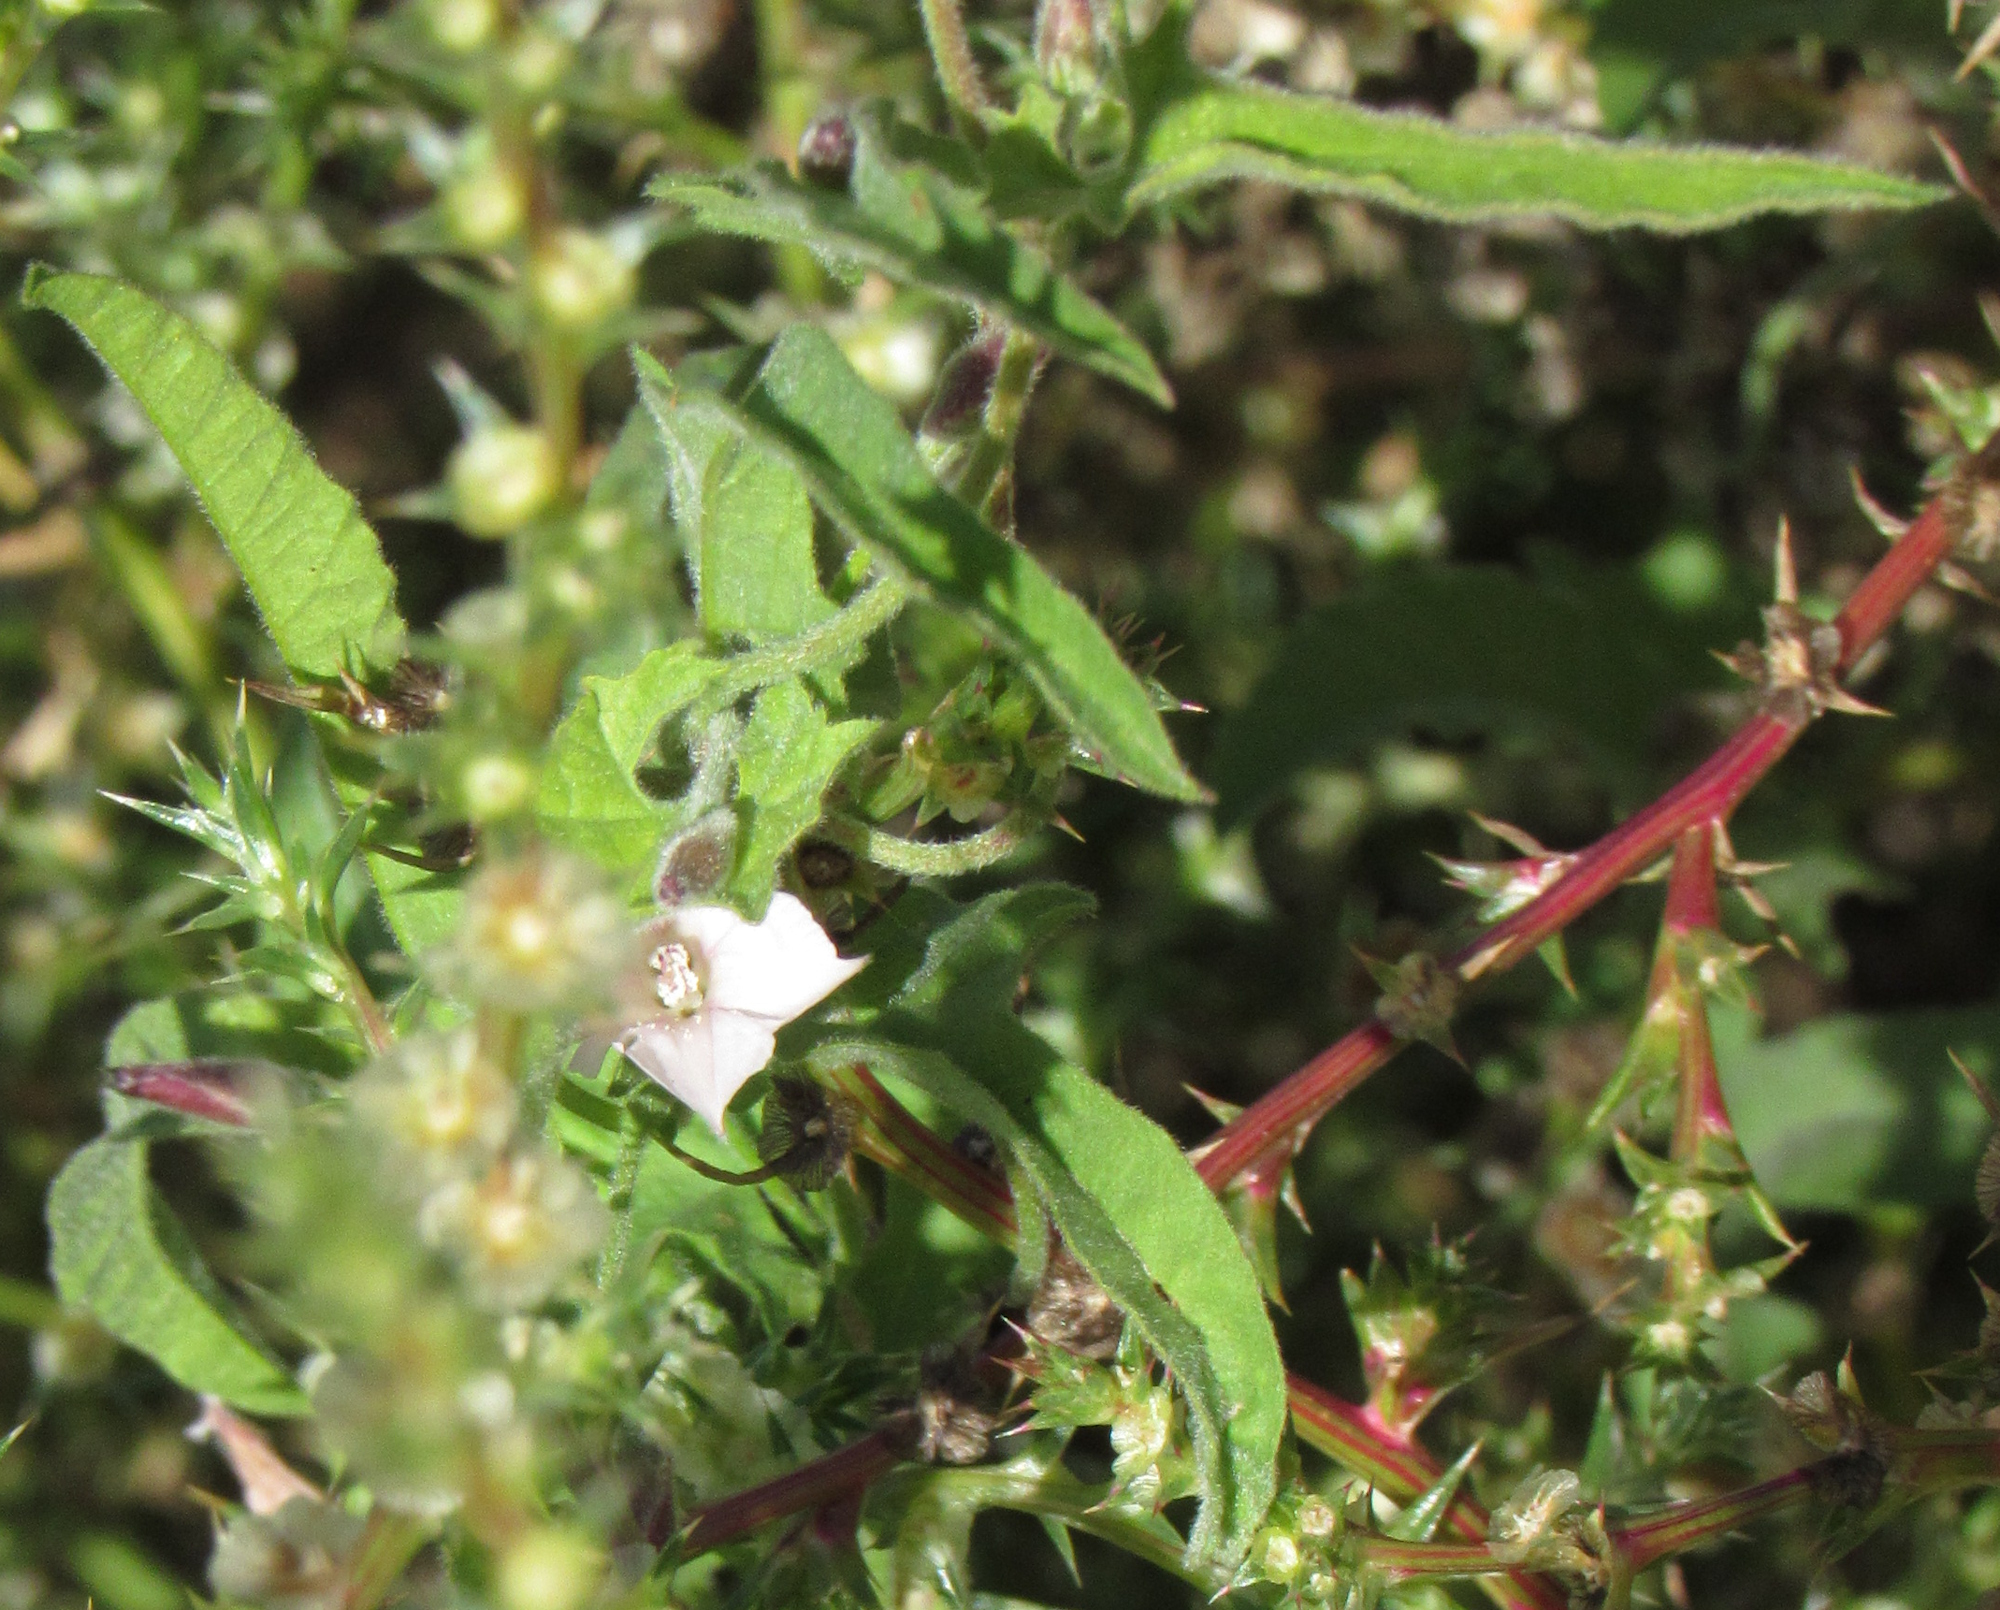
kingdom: Plantae
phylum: Tracheophyta
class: Magnoliopsida
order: Solanales
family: Convolvulaceae
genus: Convolvulus
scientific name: Convolvulus equitans
